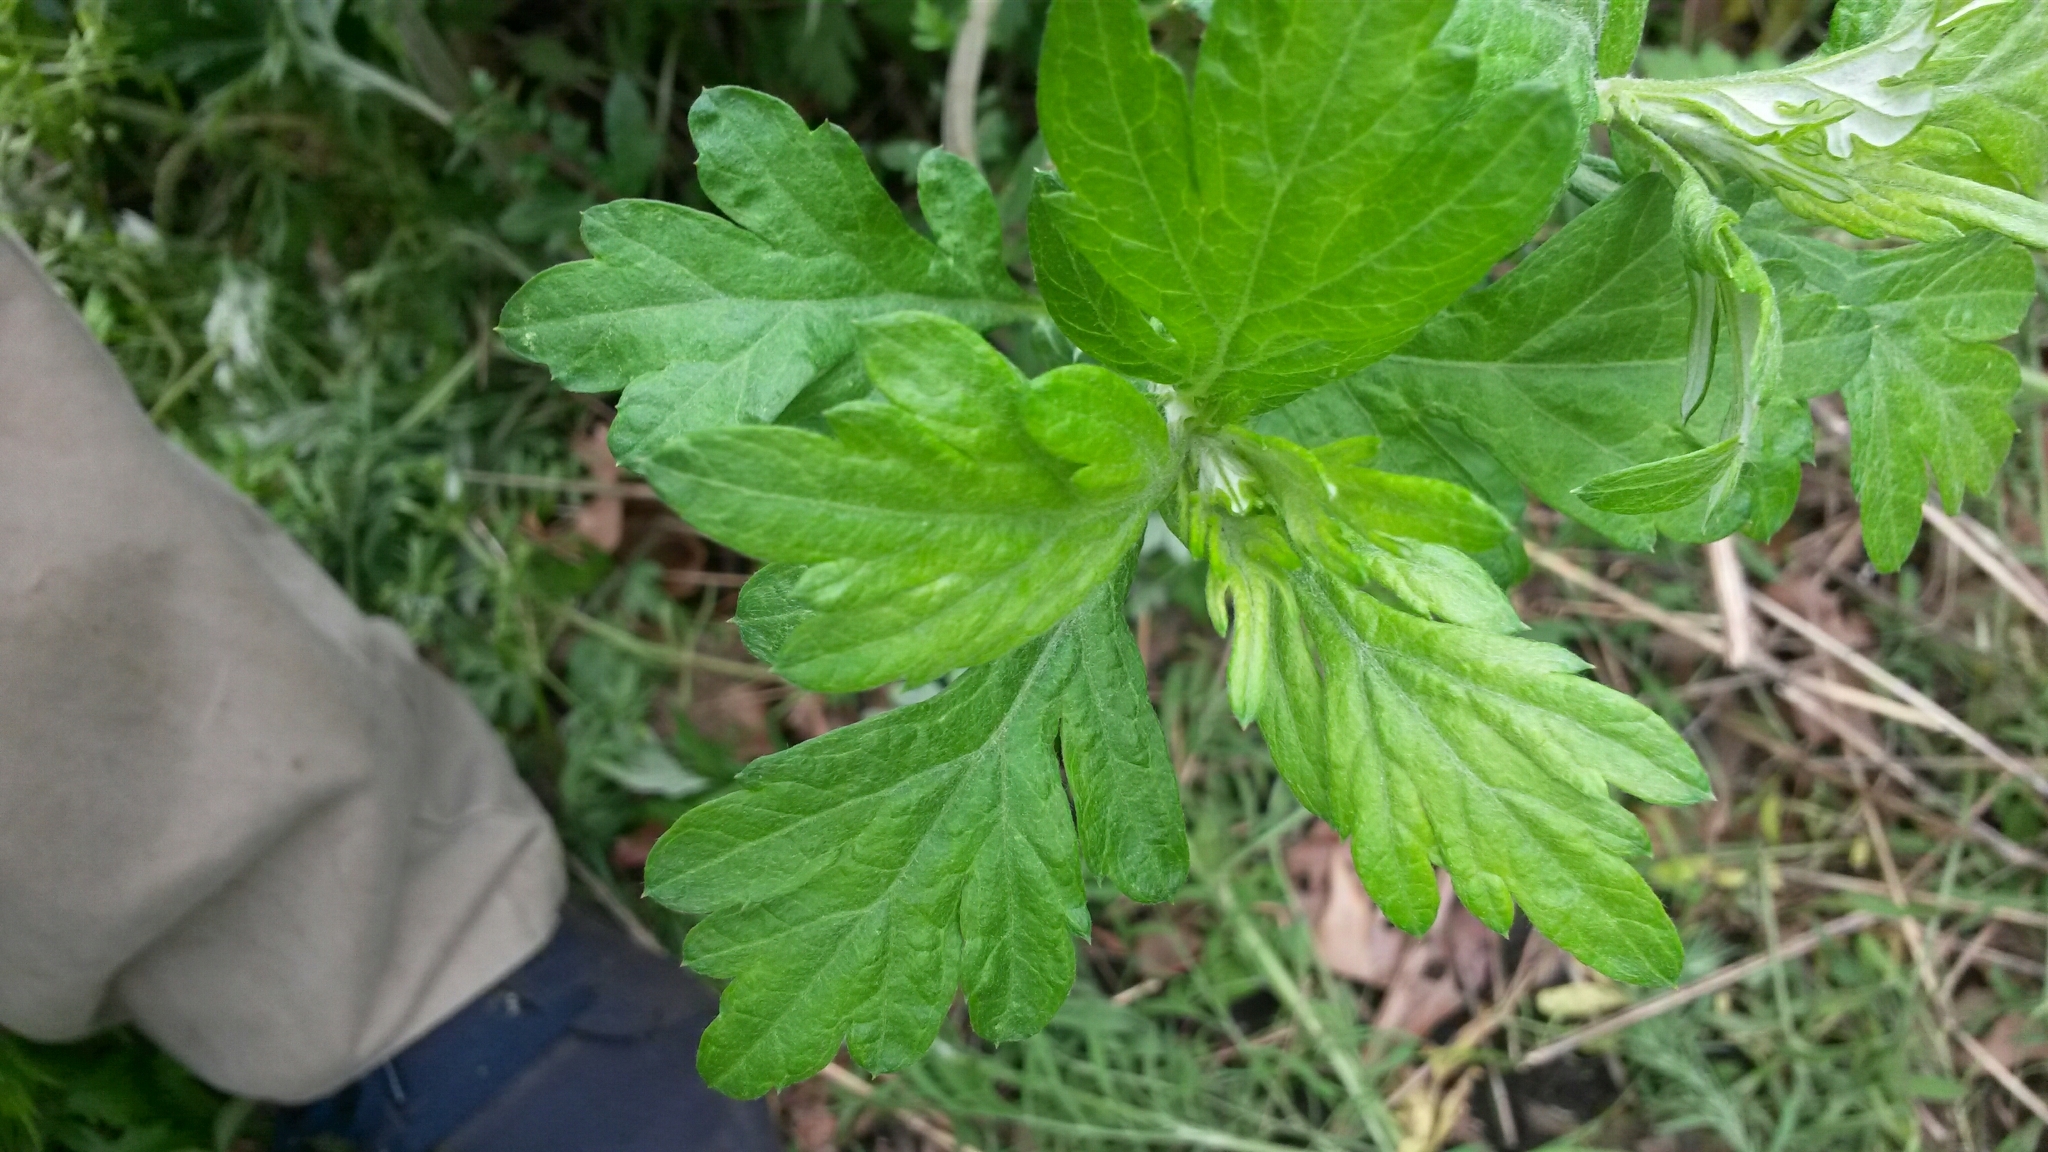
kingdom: Plantae
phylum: Tracheophyta
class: Magnoliopsida
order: Asterales
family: Asteraceae
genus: Artemisia
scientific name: Artemisia vulgaris
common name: Mugwort
